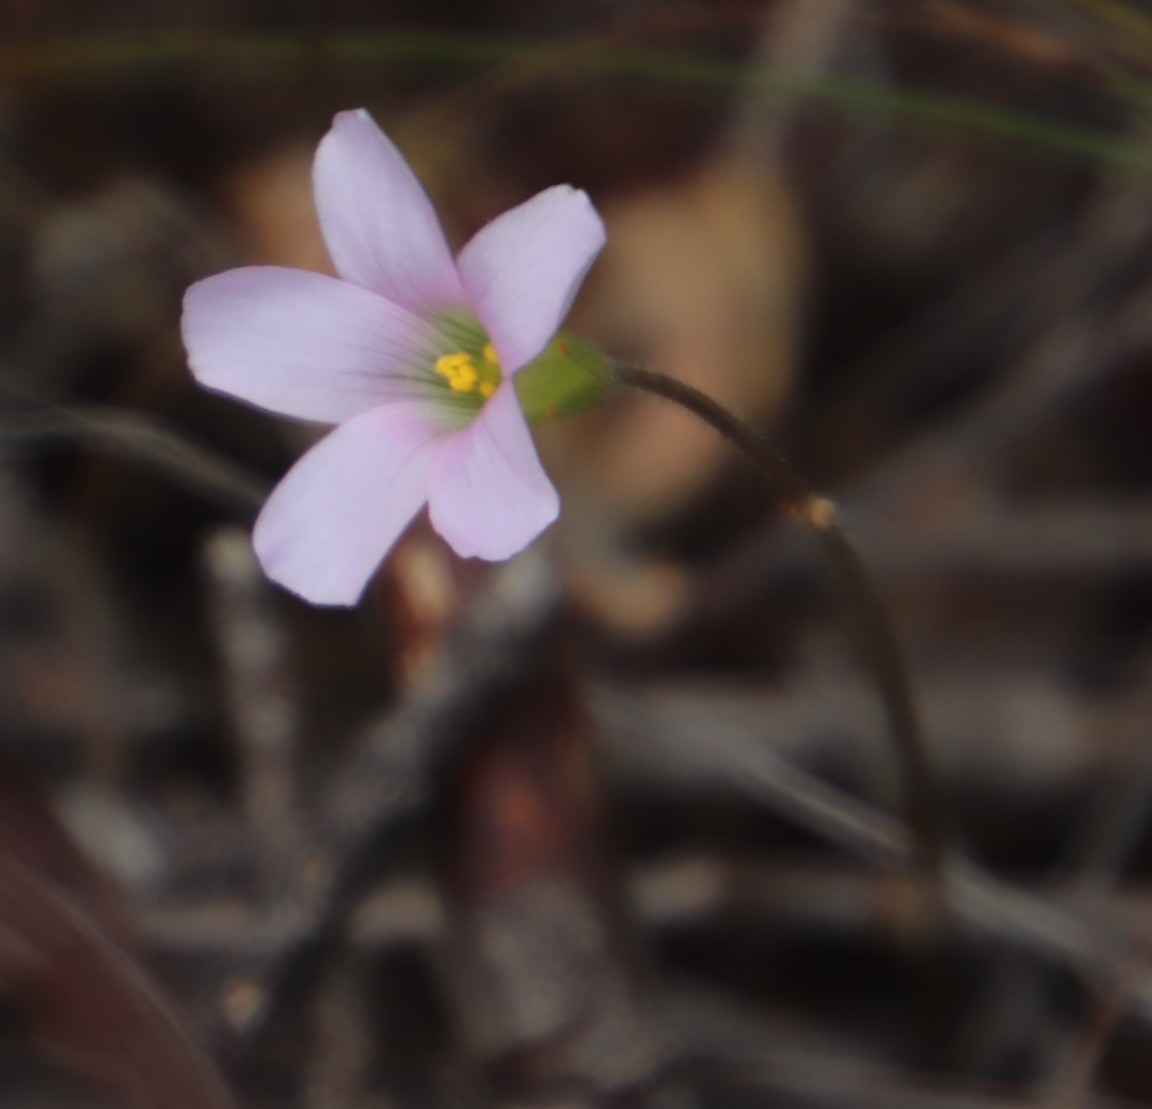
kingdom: Plantae
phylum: Tracheophyta
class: Magnoliopsida
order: Oxalidales
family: Oxalidaceae
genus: Oxalis
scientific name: Oxalis
